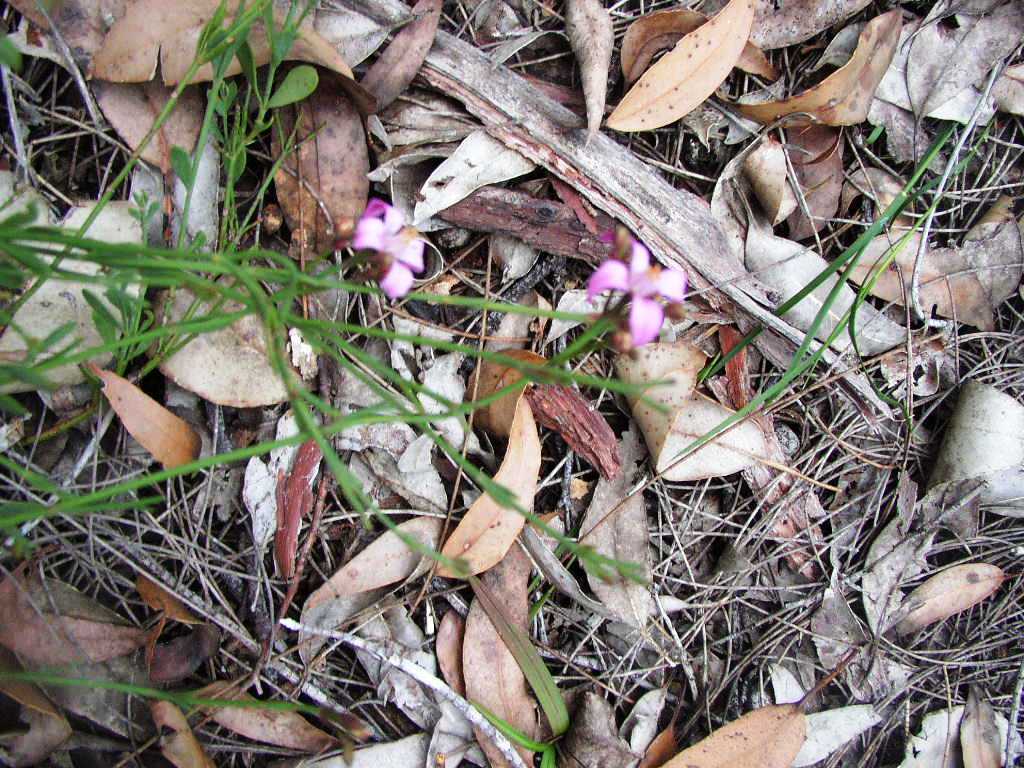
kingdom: Plantae
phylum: Tracheophyta
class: Magnoliopsida
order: Sapindales
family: Rutaceae
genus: Boronia
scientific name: Boronia crenulata
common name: Aniseed boronia
